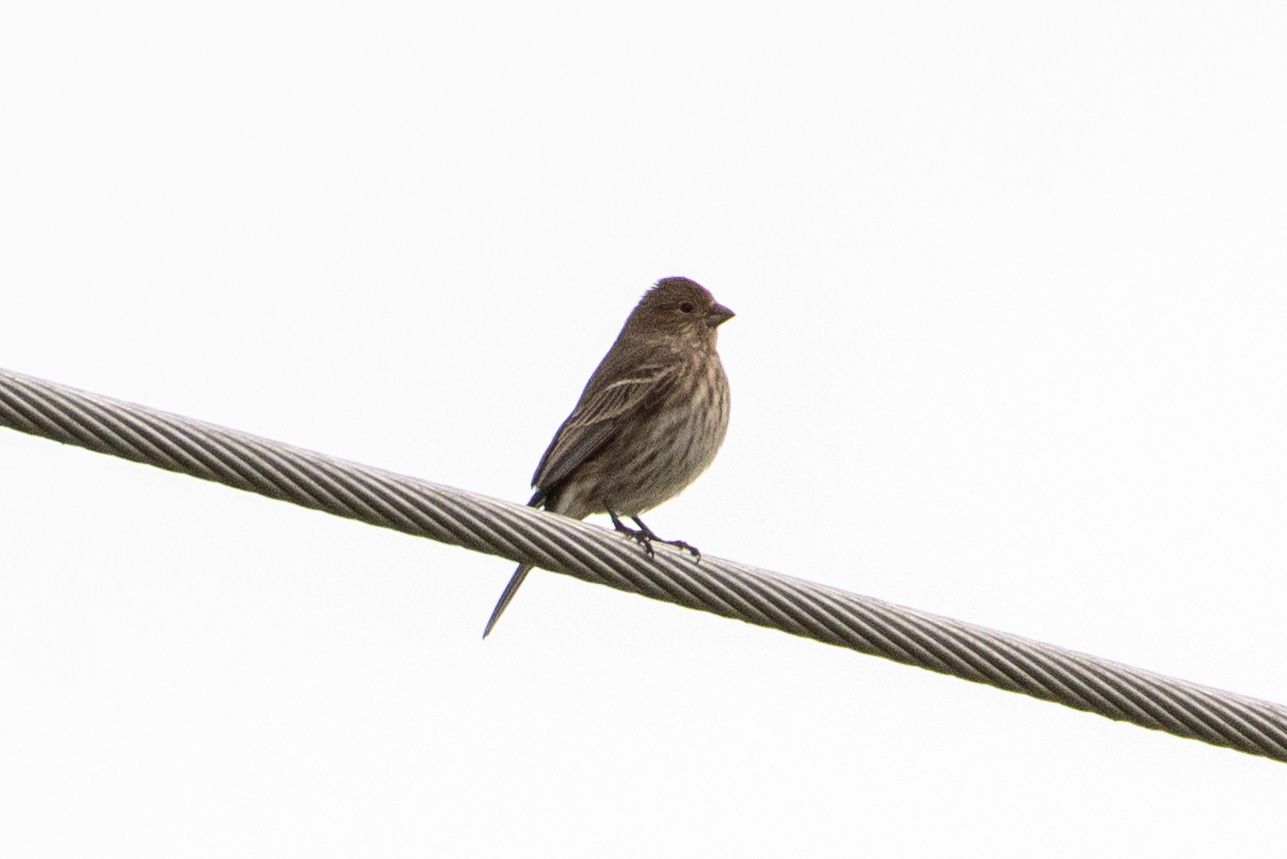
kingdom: Animalia
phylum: Chordata
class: Aves
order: Passeriformes
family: Fringillidae
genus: Haemorhous
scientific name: Haemorhous mexicanus
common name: House finch
